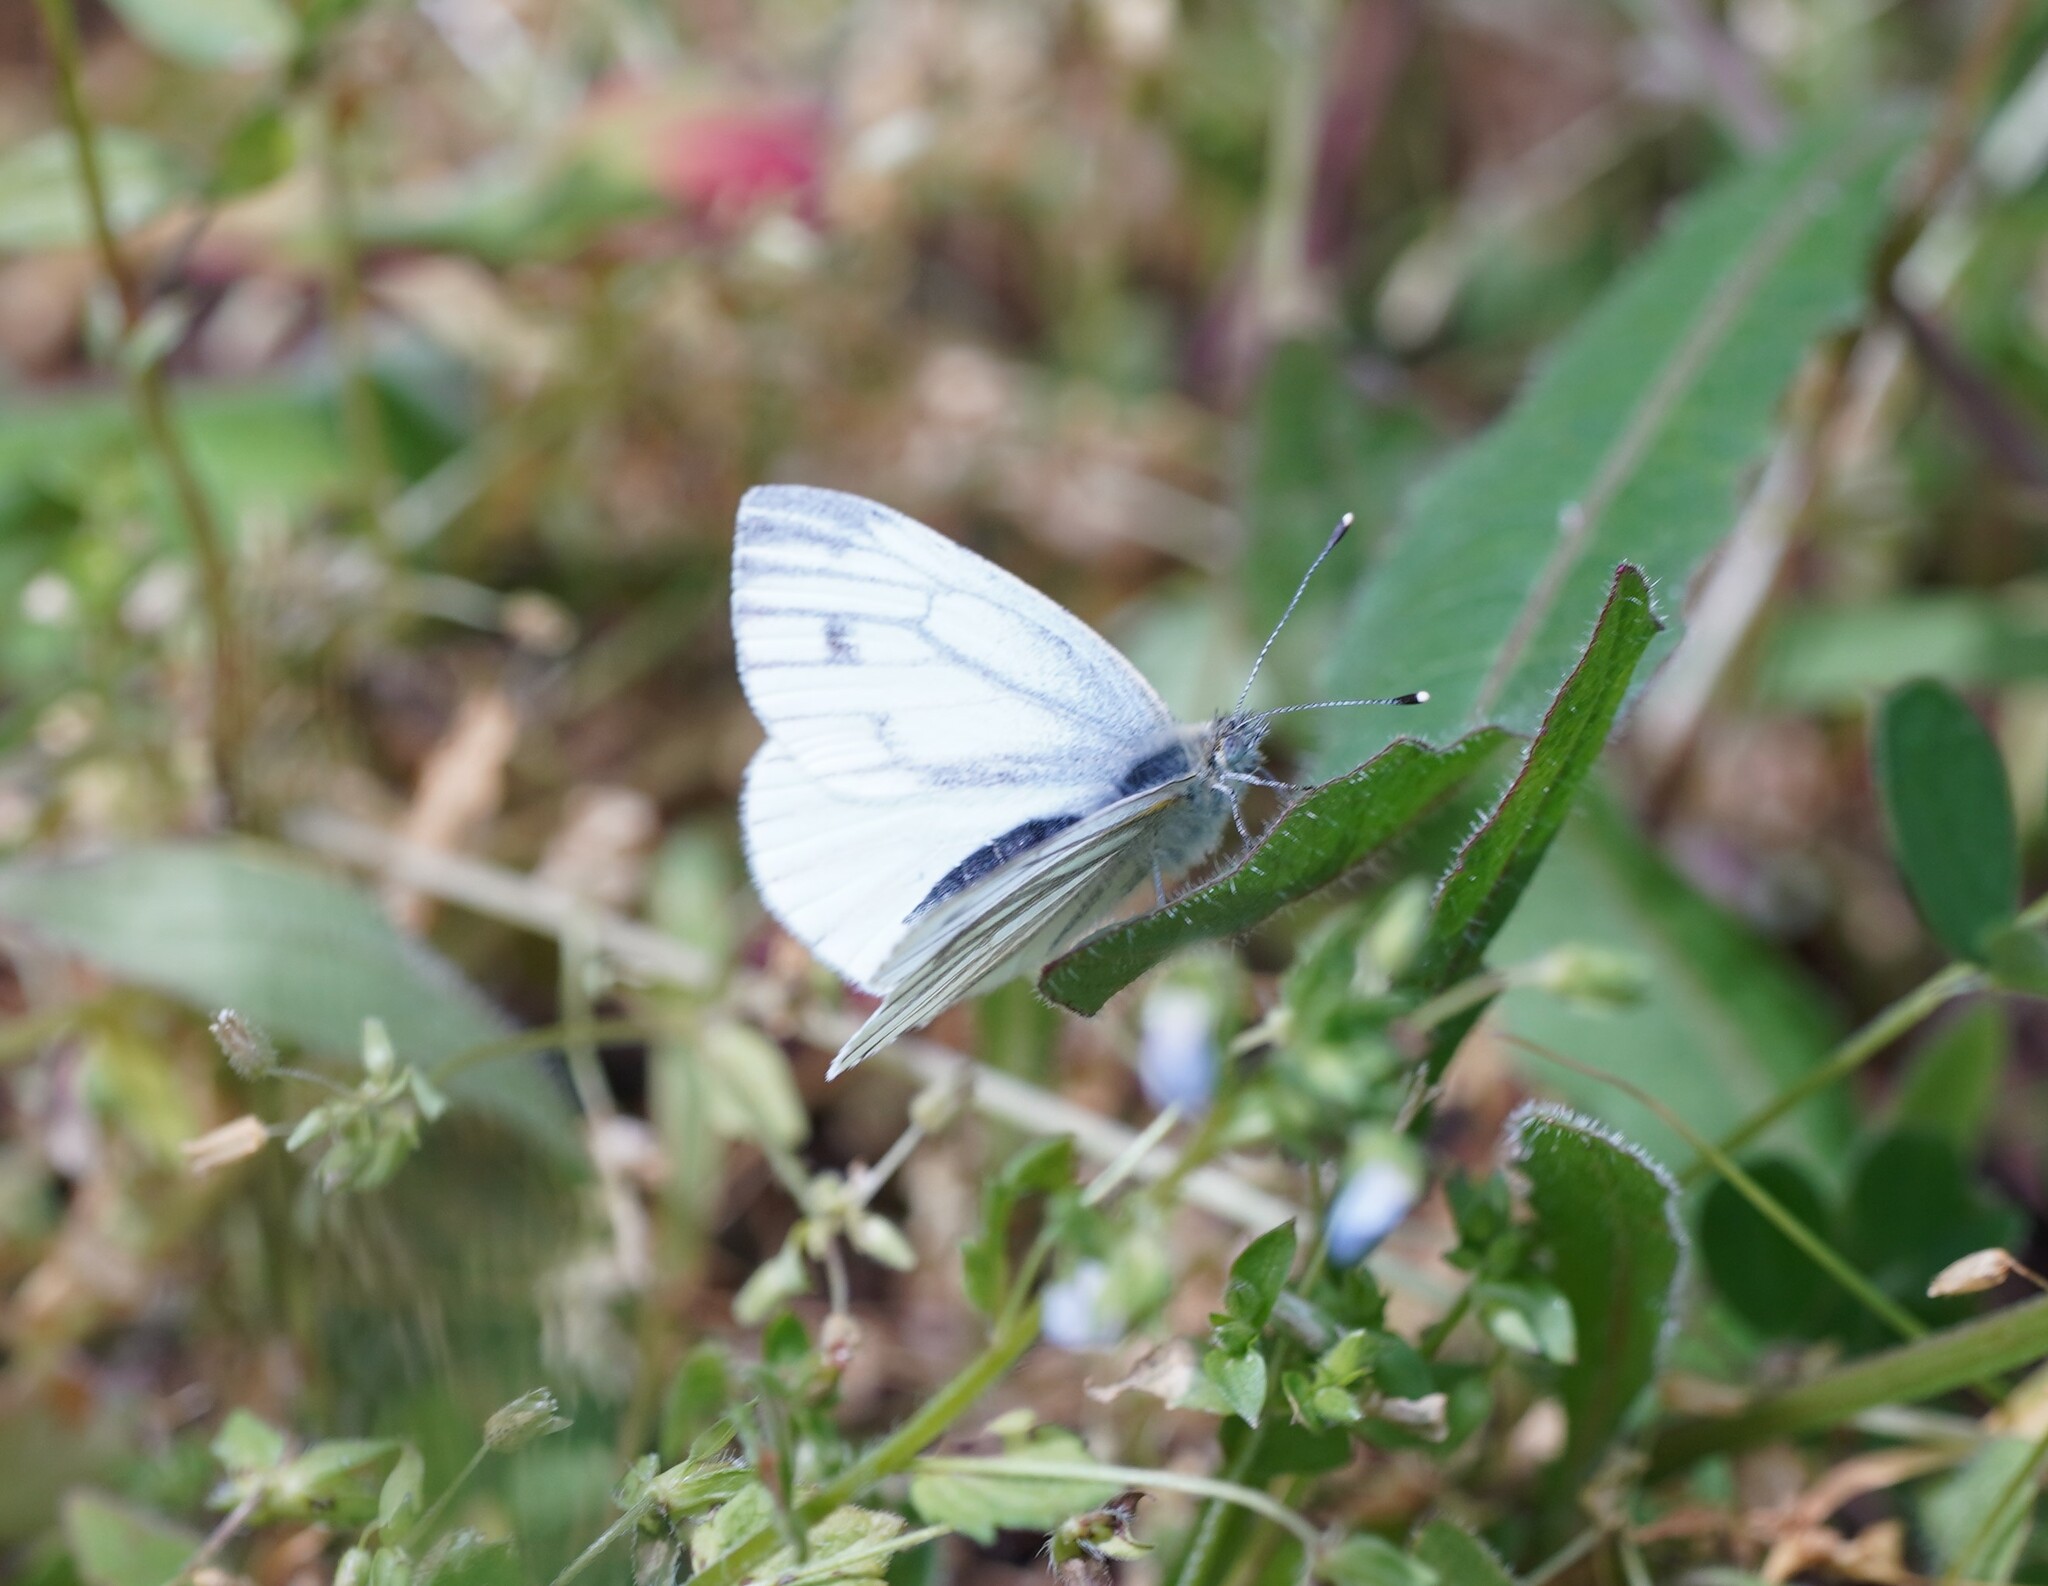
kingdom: Animalia
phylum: Arthropoda
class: Insecta
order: Lepidoptera
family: Pieridae
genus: Pieris
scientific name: Pieris napi
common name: Green-veined white
